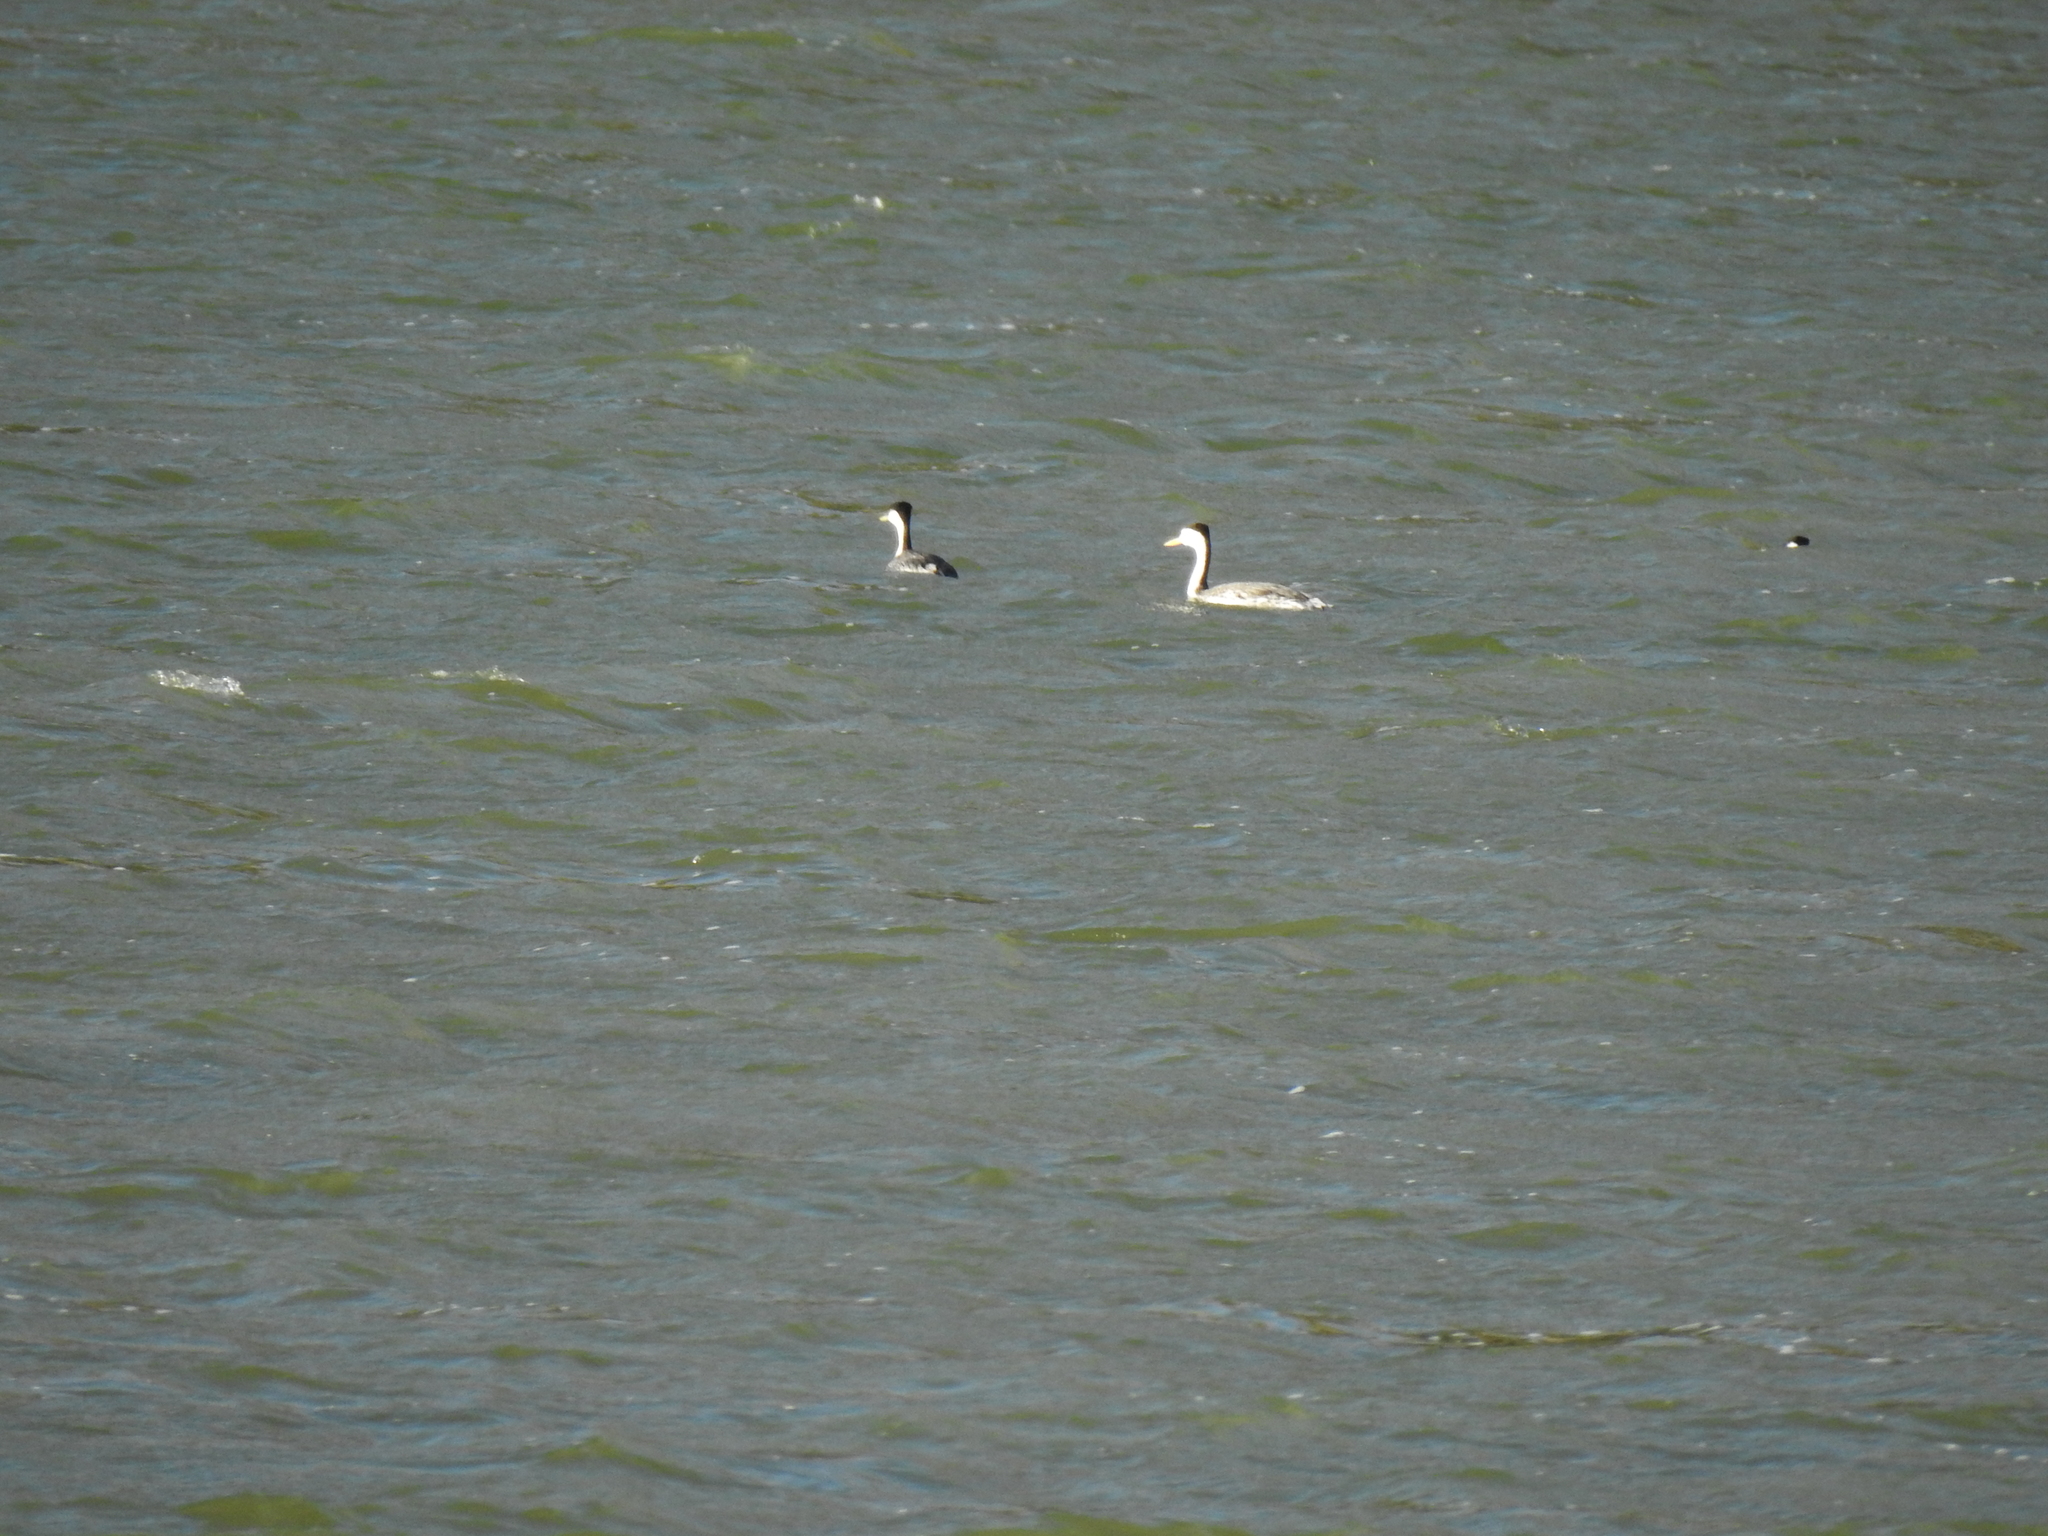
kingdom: Animalia
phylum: Chordata
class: Aves
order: Podicipediformes
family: Podicipedidae
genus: Aechmophorus
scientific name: Aechmophorus clarkii
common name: Clark's grebe
